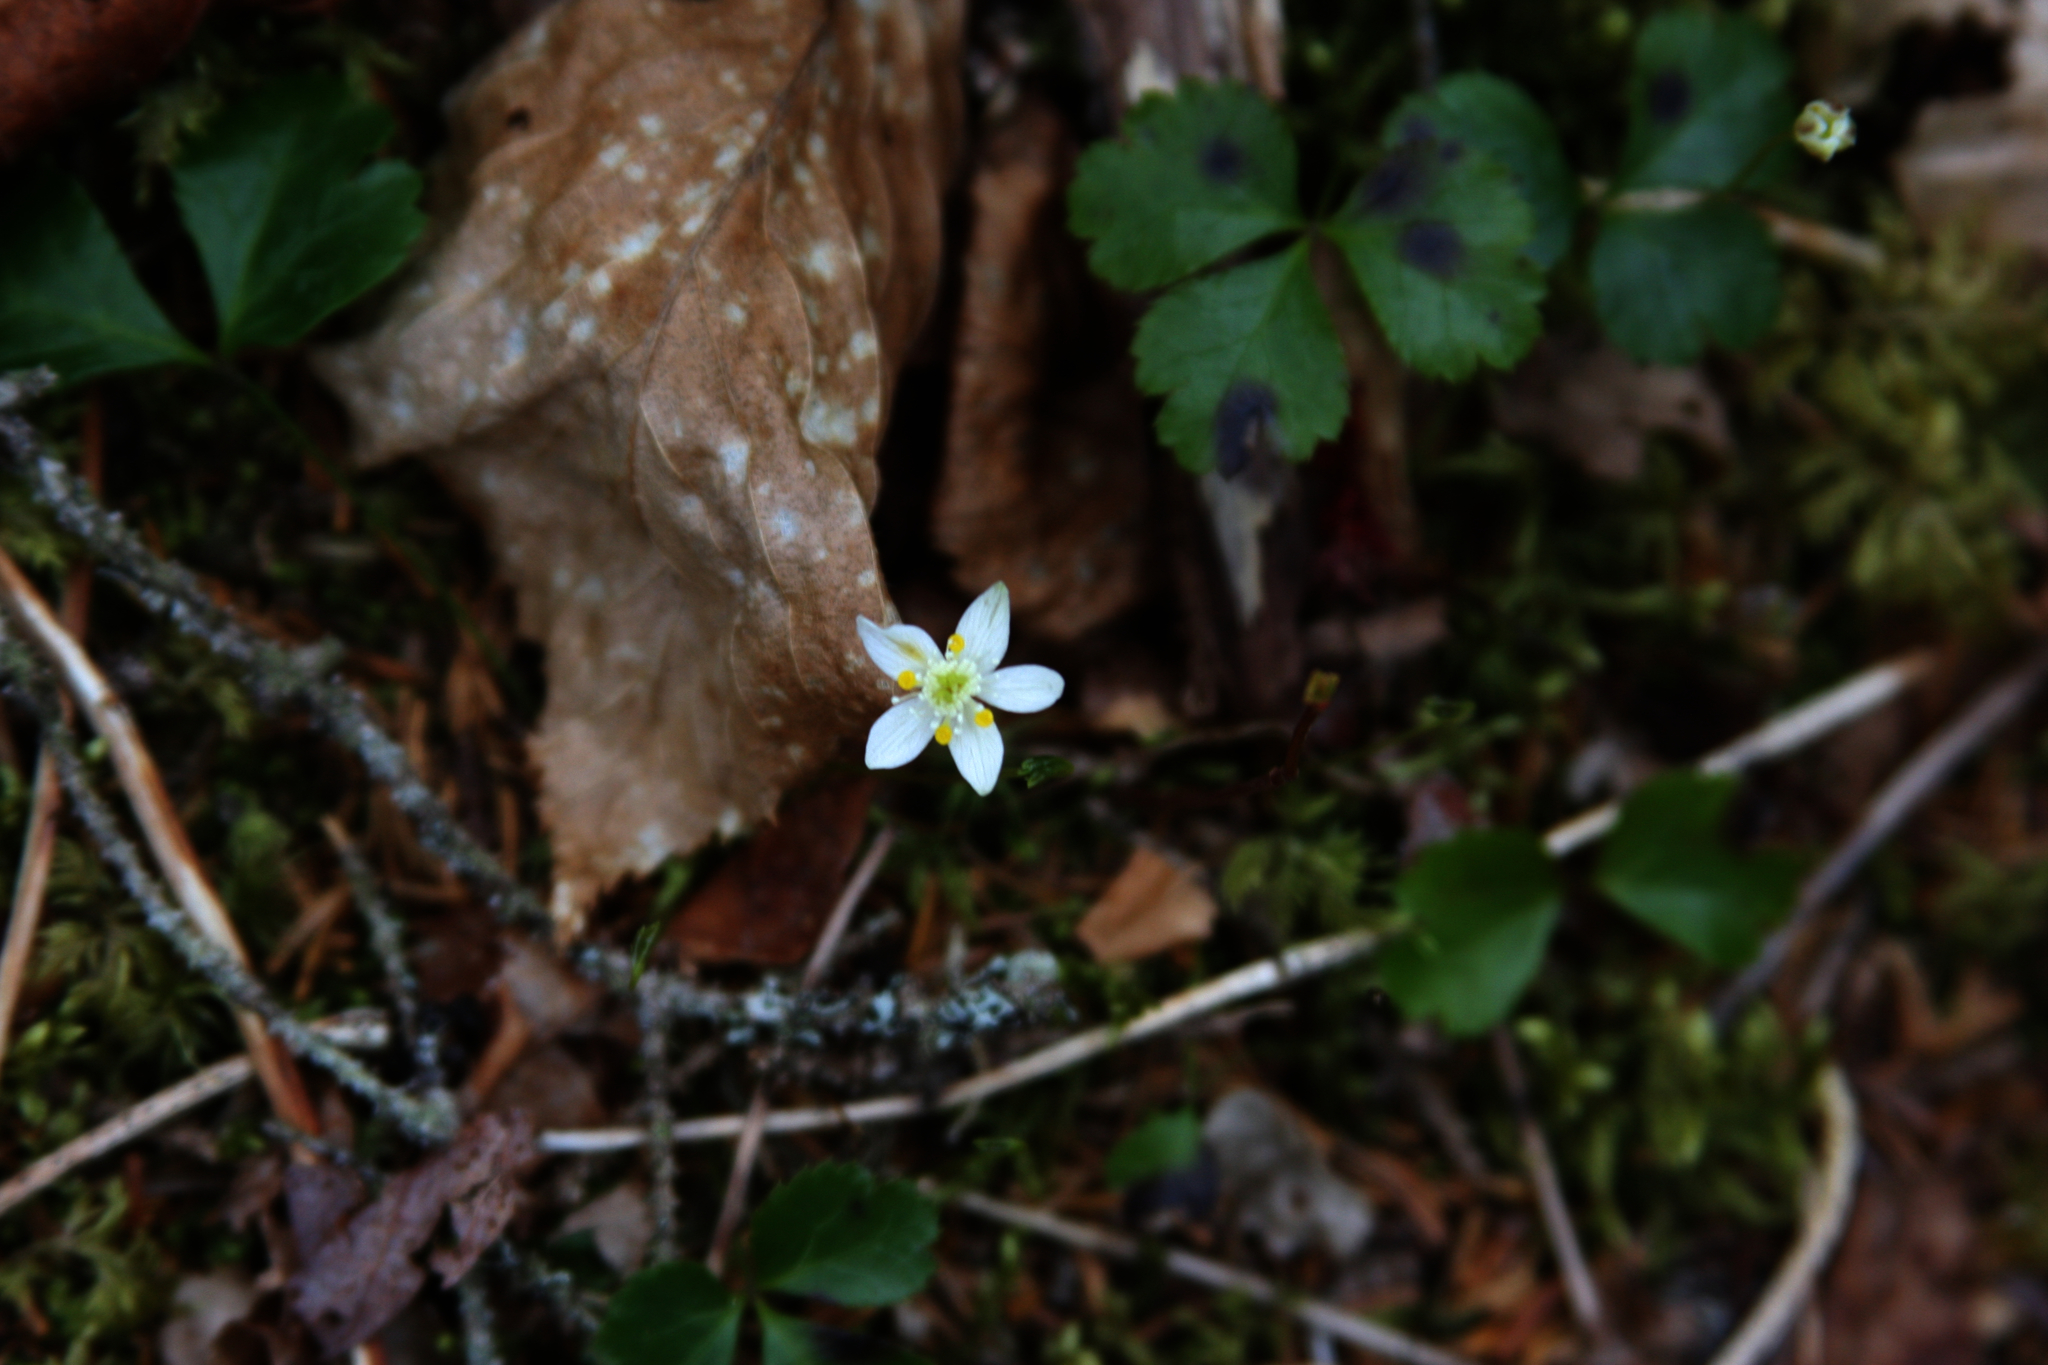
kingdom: Plantae
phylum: Tracheophyta
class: Magnoliopsida
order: Ranunculales
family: Ranunculaceae
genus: Coptis
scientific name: Coptis trifolia
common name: Canker-root
